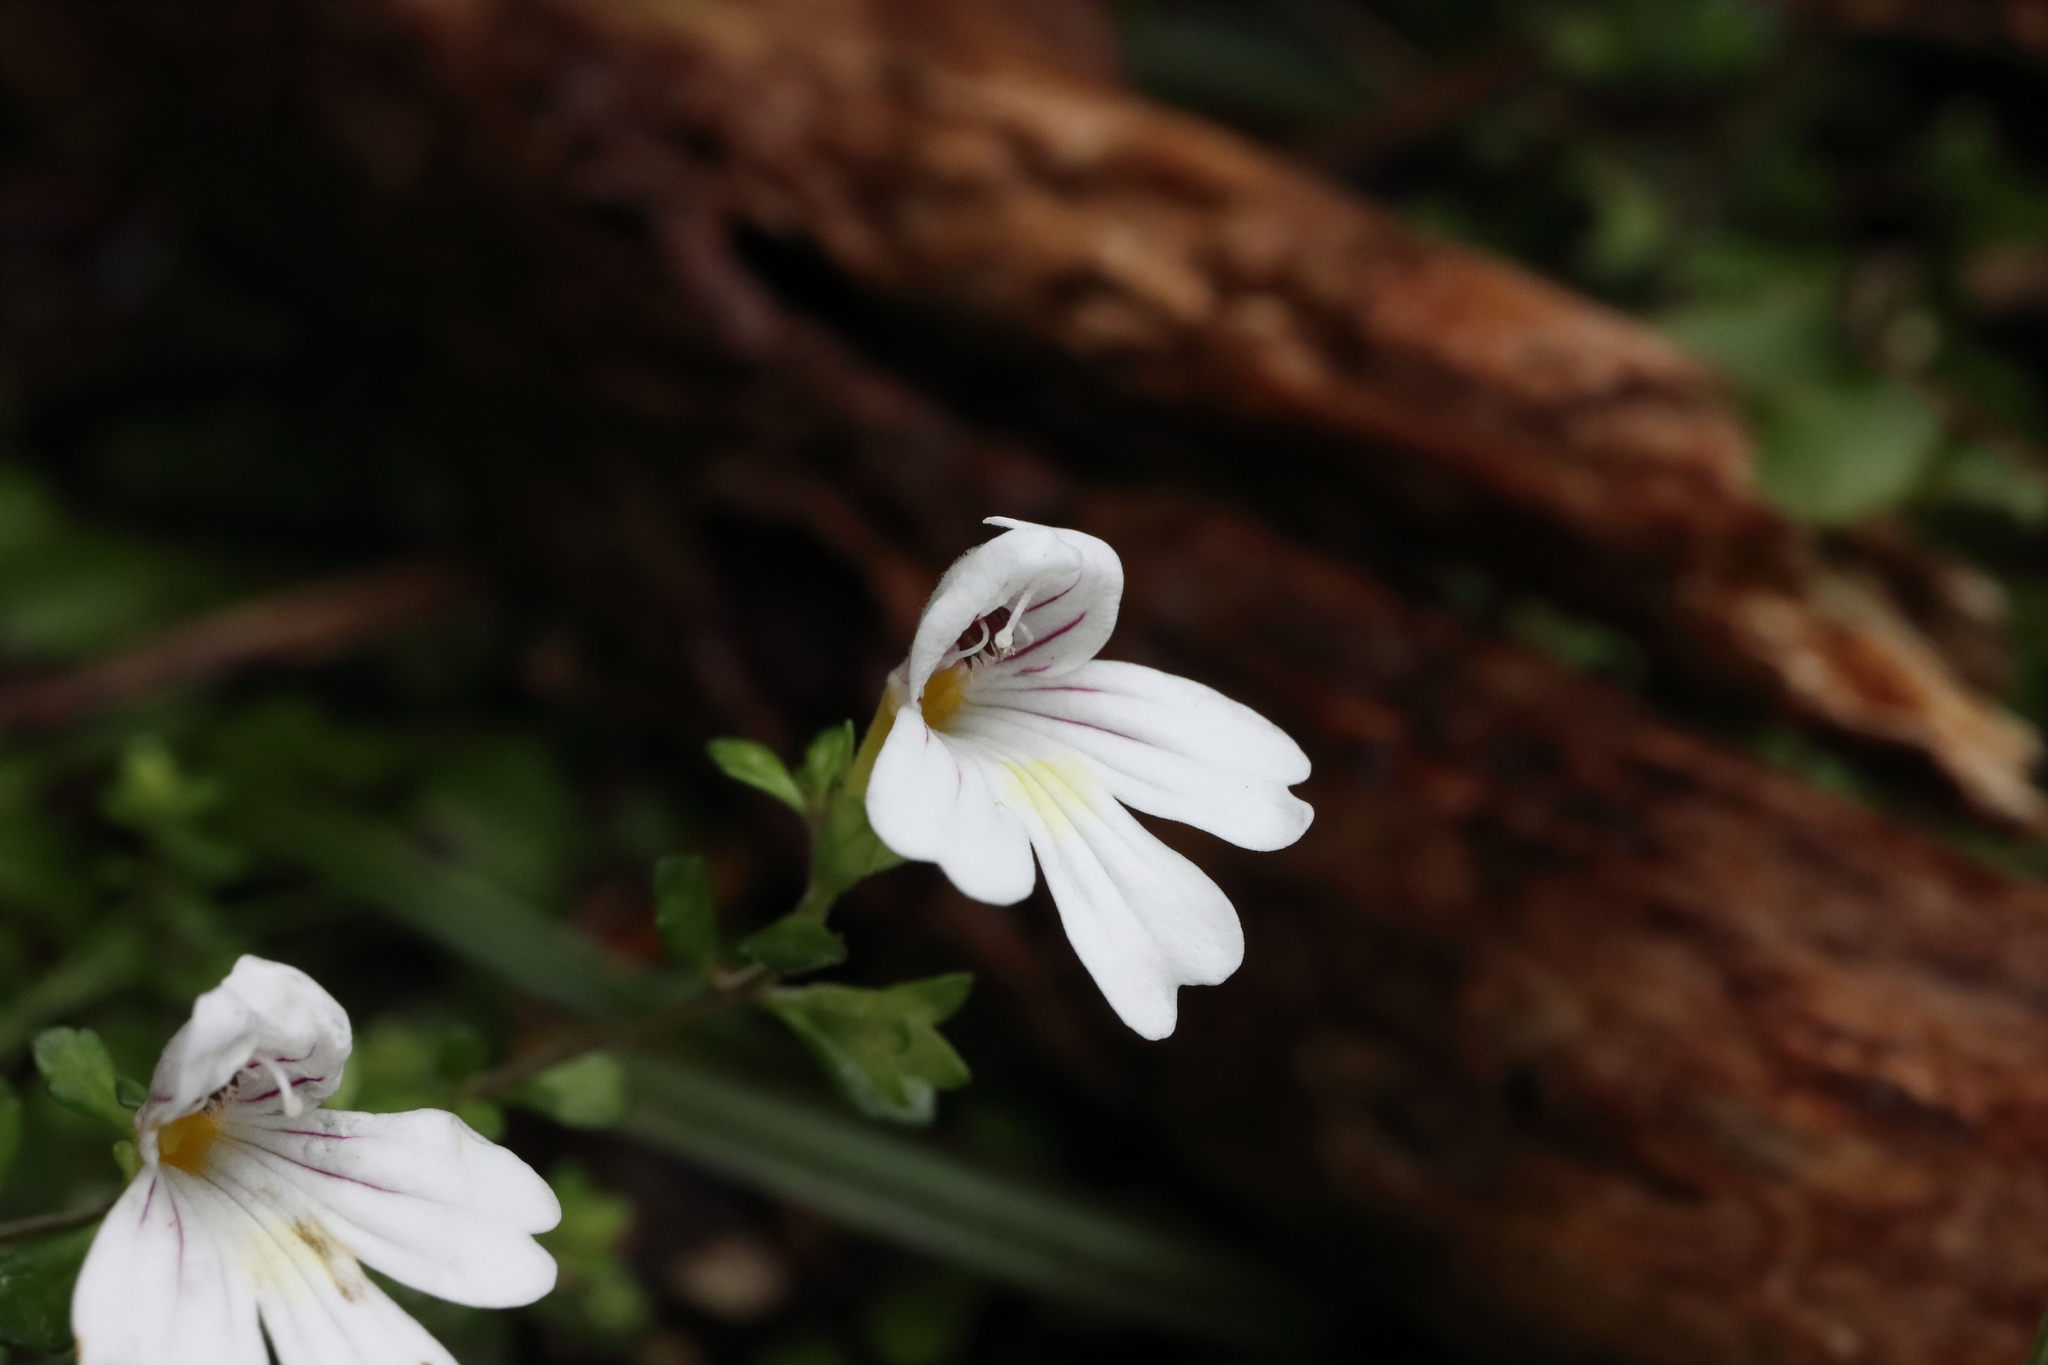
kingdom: Plantae
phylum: Tracheophyta
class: Magnoliopsida
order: Lamiales
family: Orobanchaceae
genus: Euphrasia
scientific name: Euphrasia cuneata
